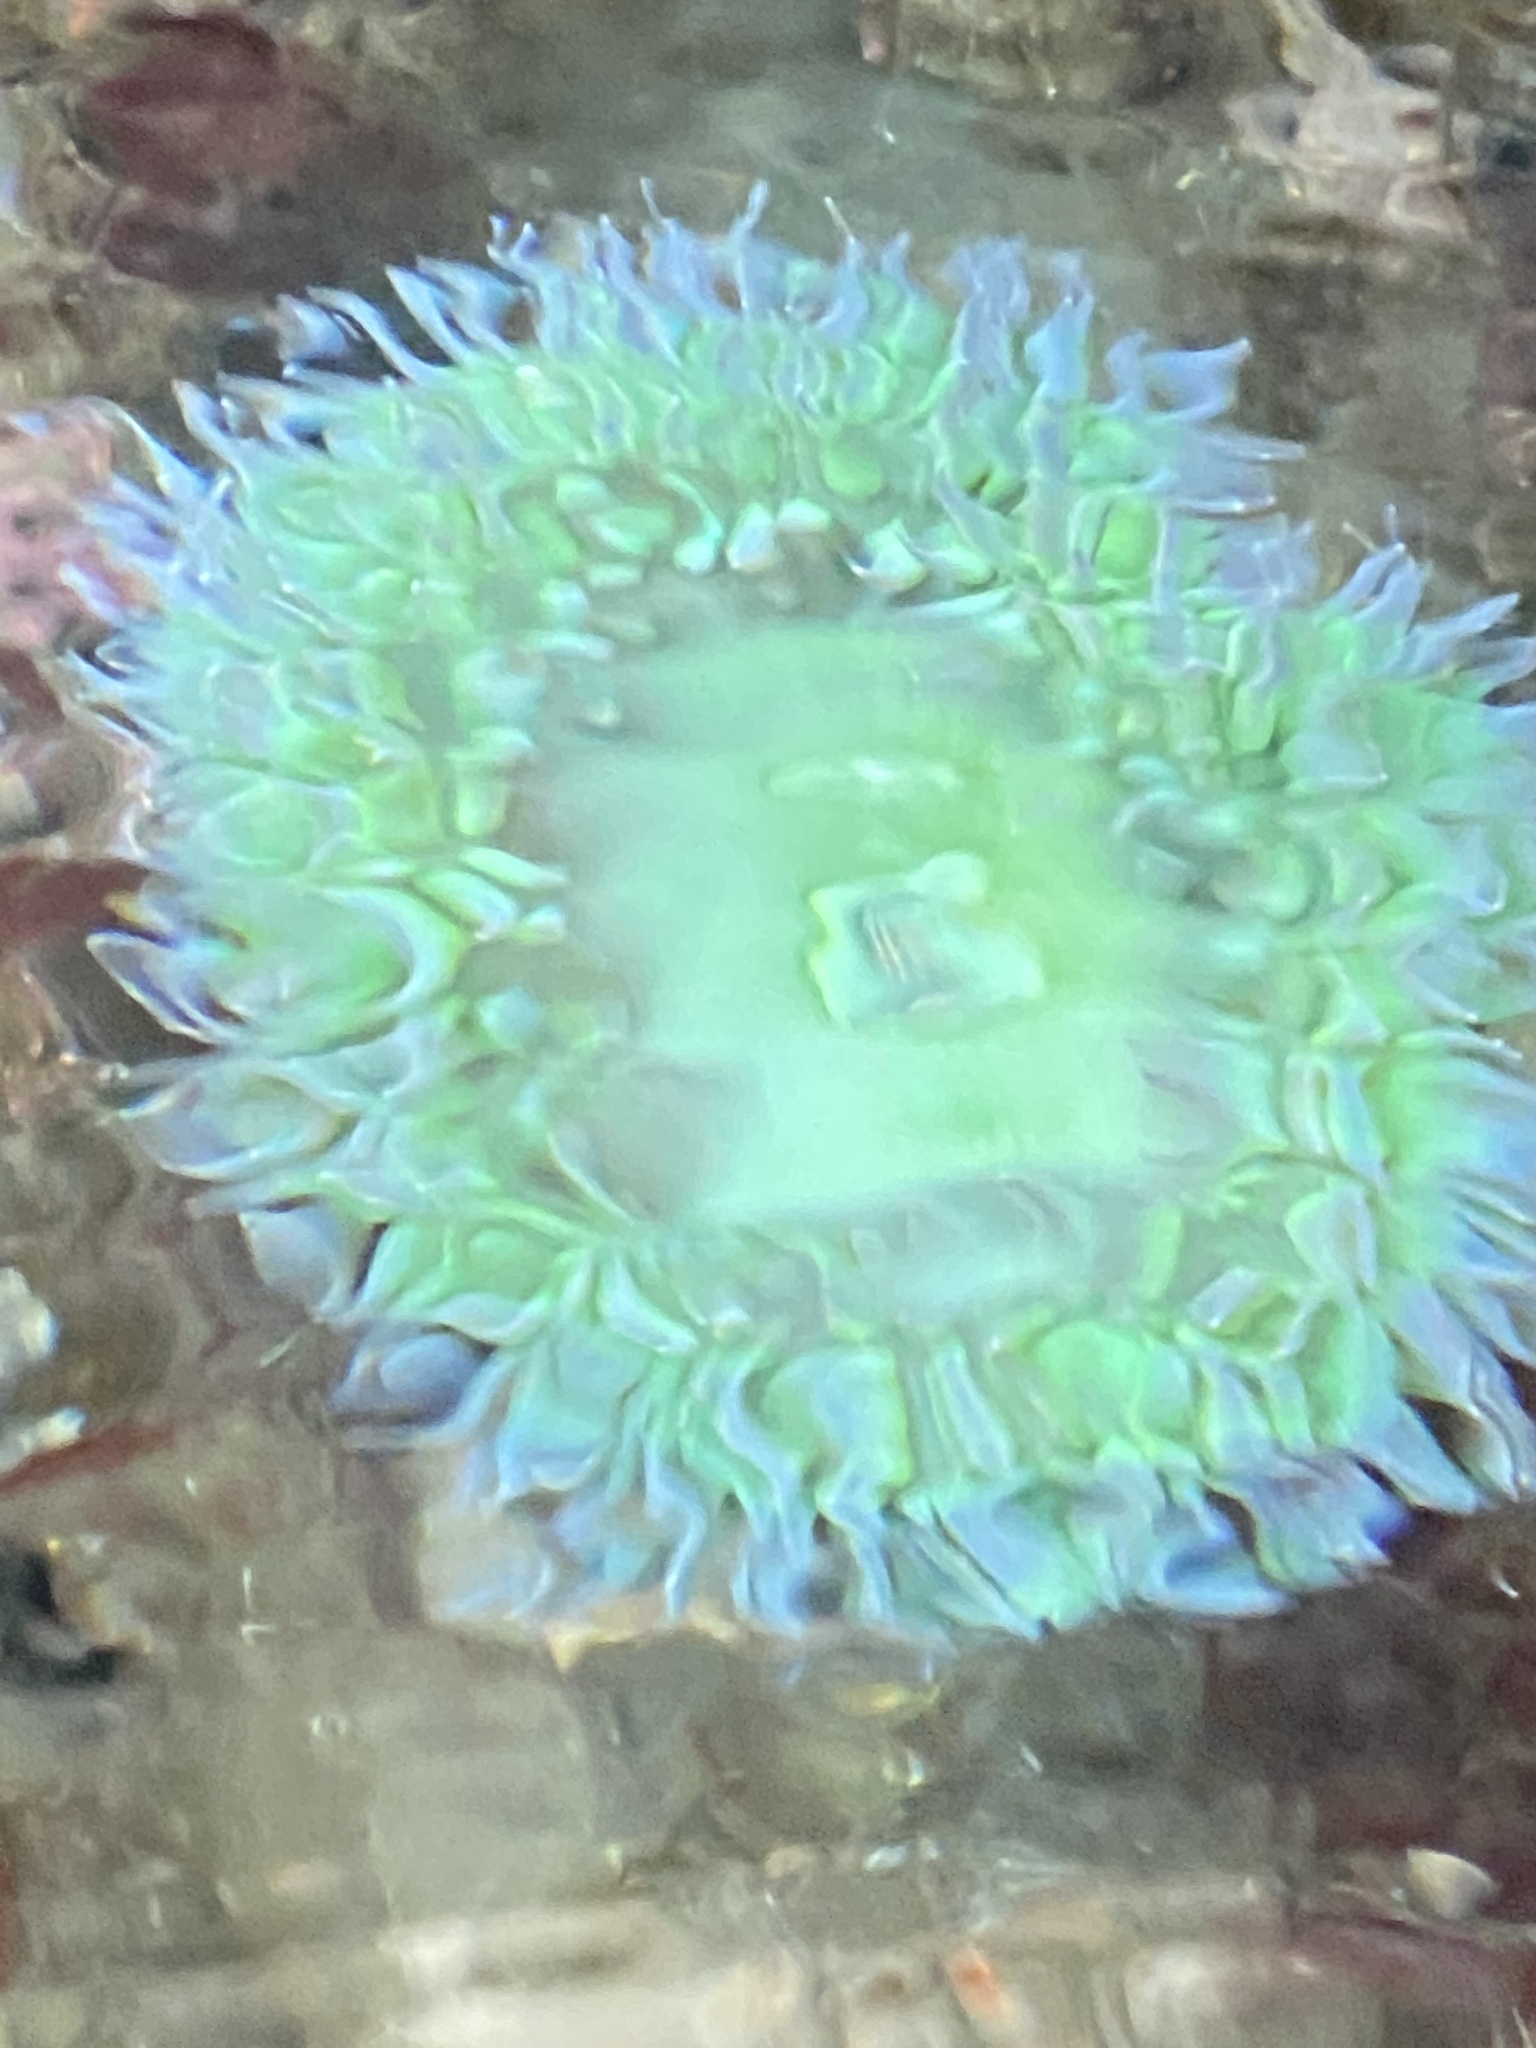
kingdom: Animalia
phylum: Cnidaria
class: Anthozoa
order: Actiniaria
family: Actiniidae
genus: Anthopleura
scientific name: Anthopleura xanthogrammica
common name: Giant green anemone
